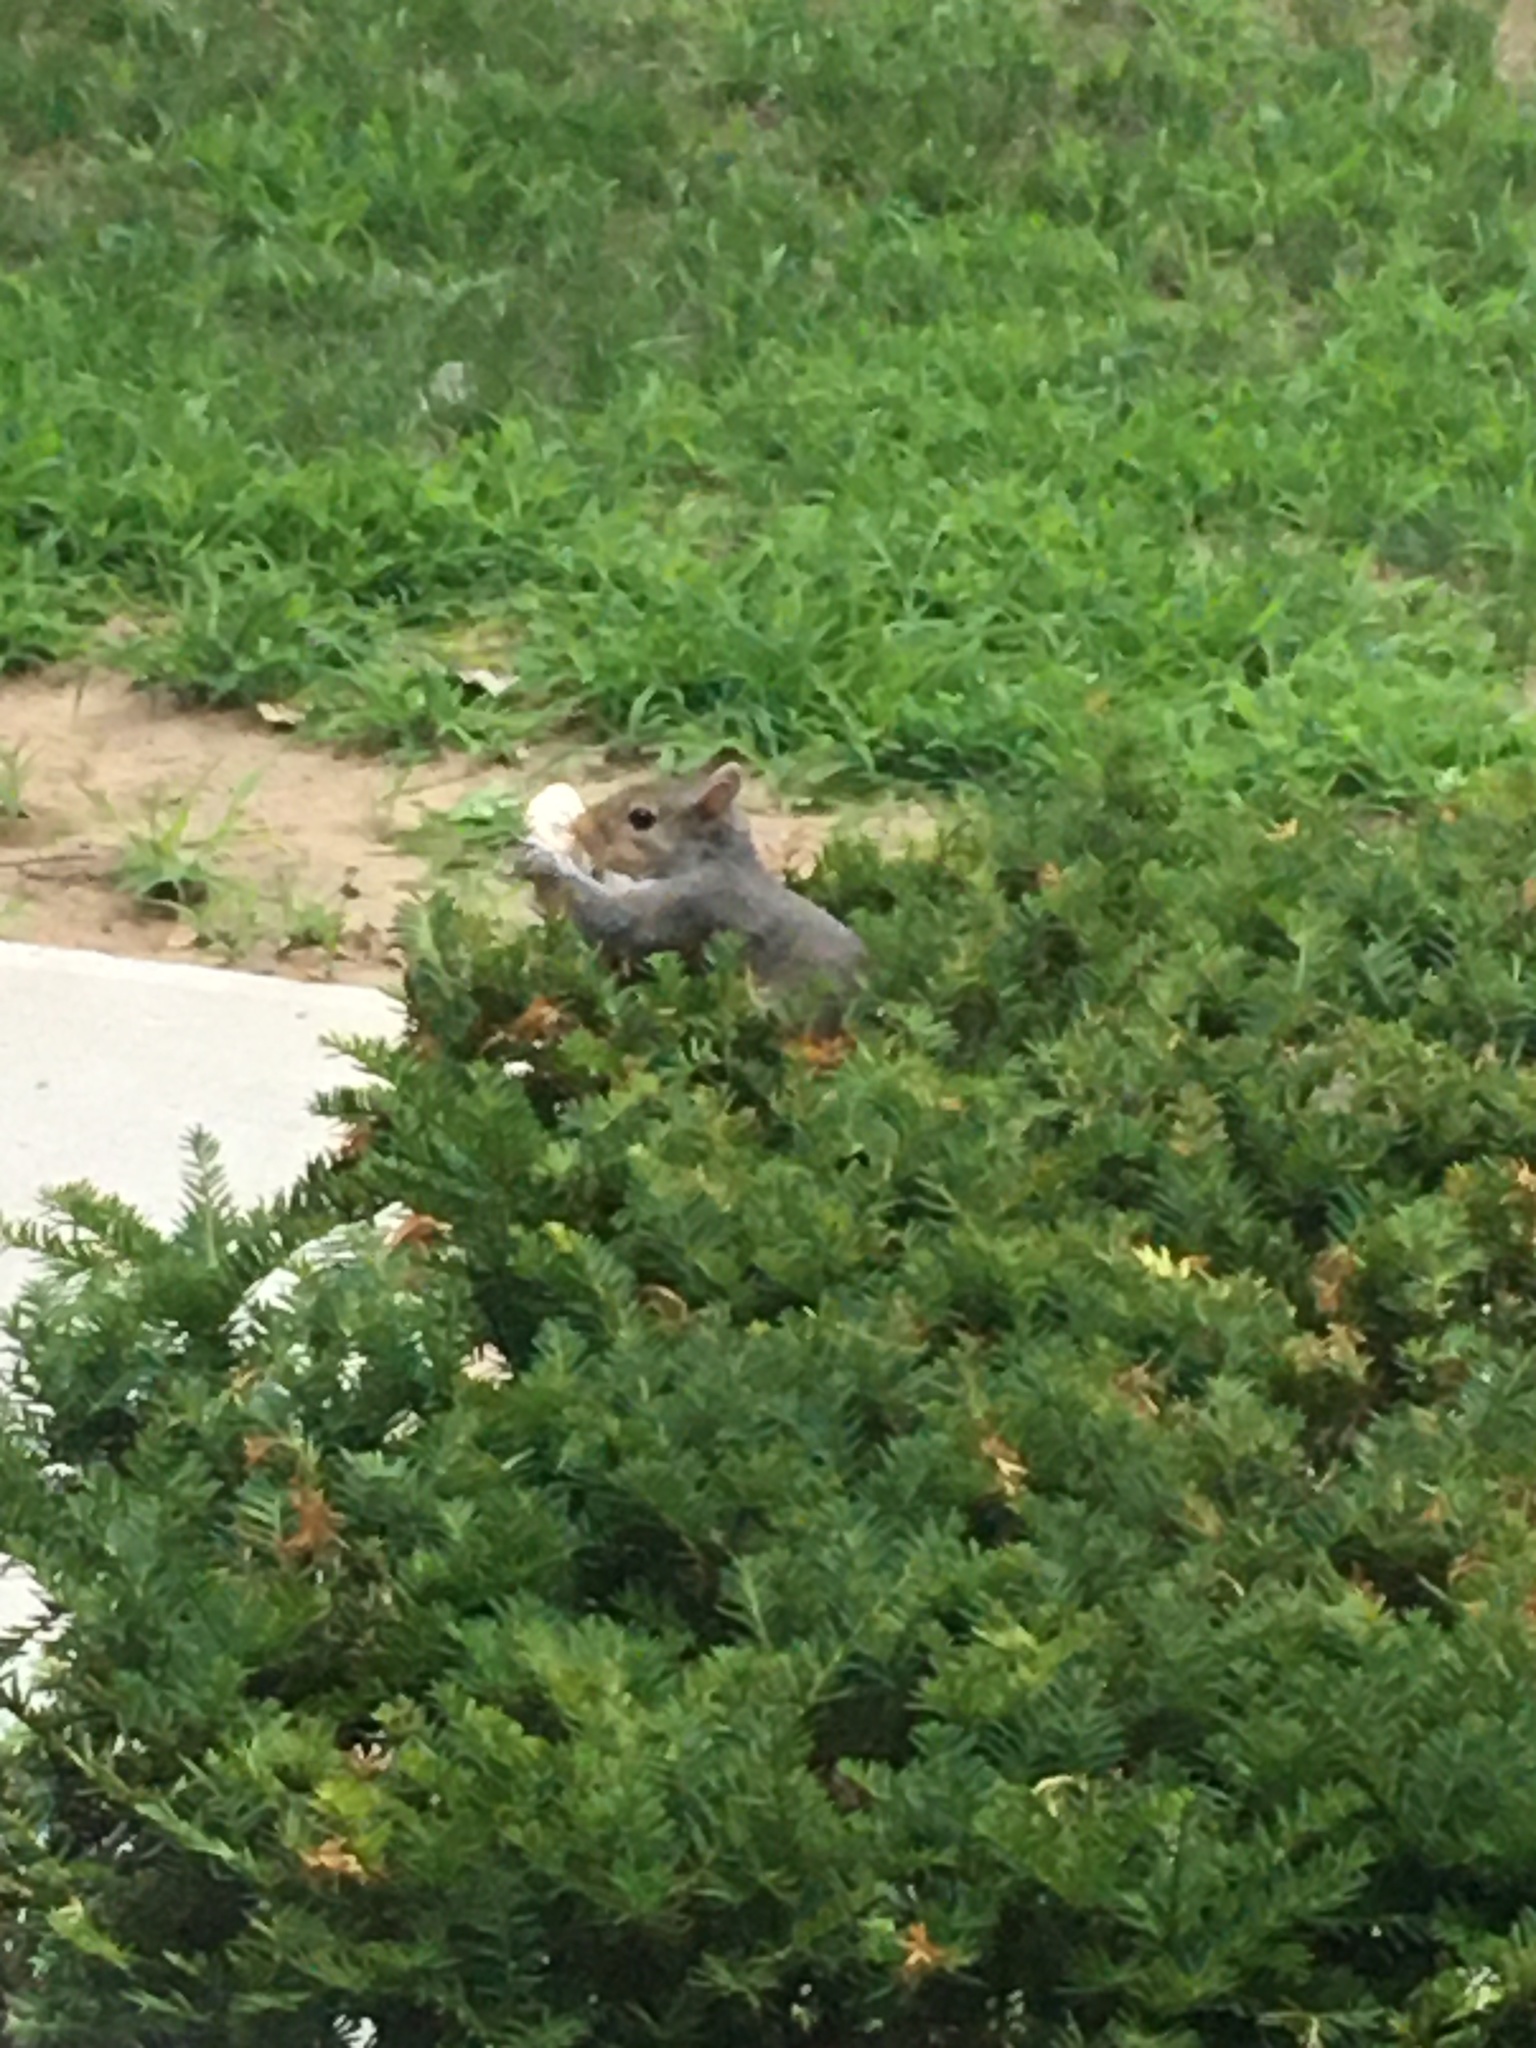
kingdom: Animalia
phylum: Chordata
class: Mammalia
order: Rodentia
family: Sciuridae
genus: Sciurus
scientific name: Sciurus carolinensis
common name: Eastern gray squirrel
